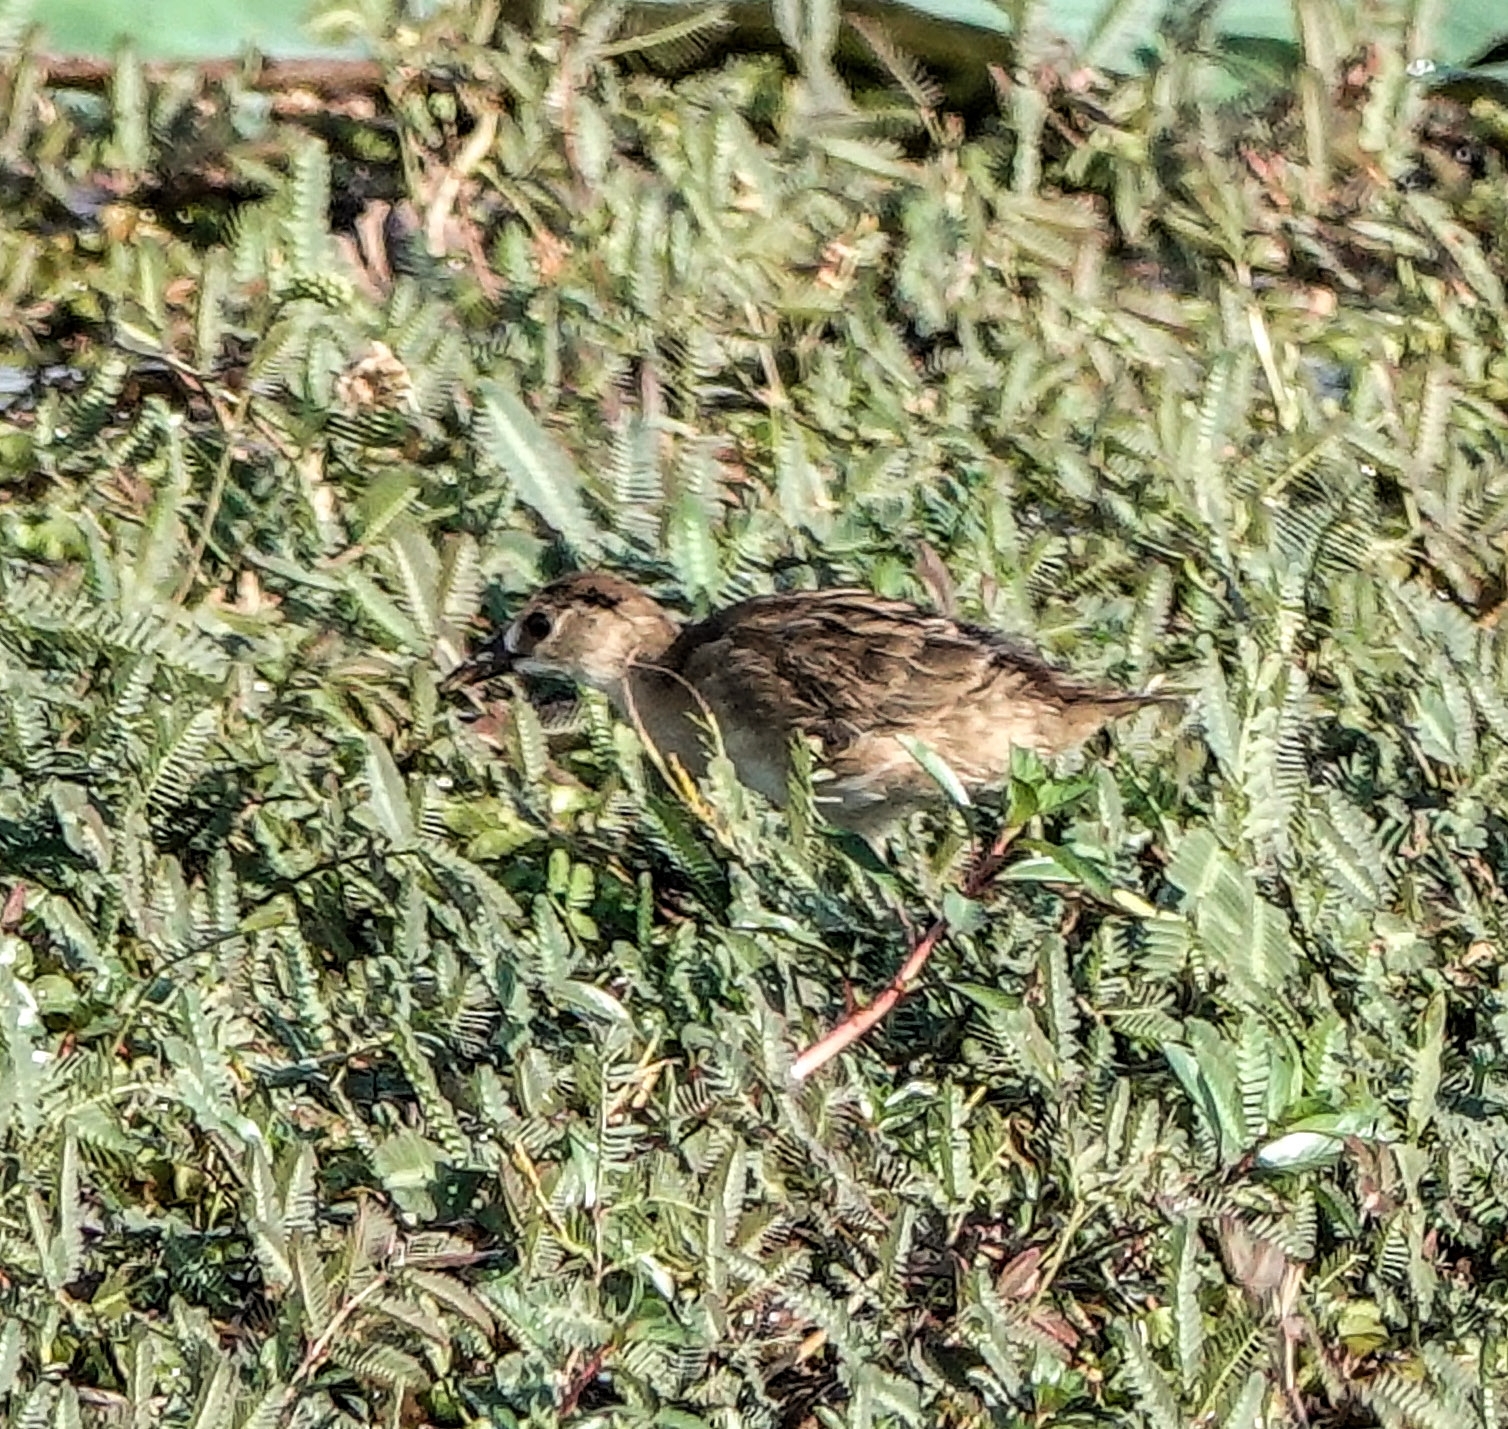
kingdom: Animalia
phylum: Chordata
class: Aves
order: Gruiformes
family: Rallidae
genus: Porzana
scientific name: Porzana cinerea
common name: White-browed crake
